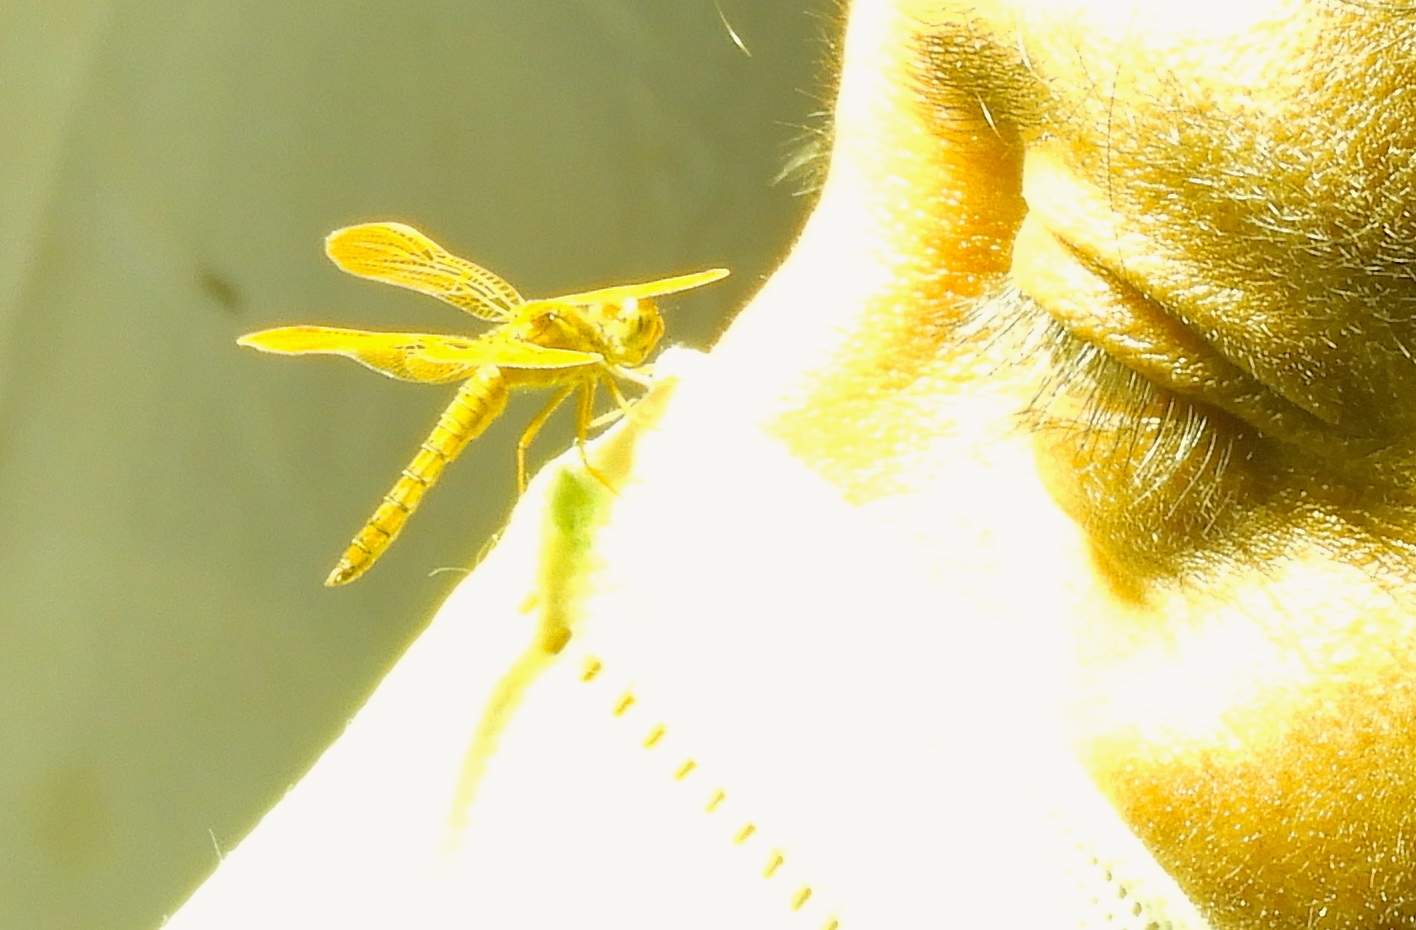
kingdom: Animalia
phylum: Arthropoda
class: Insecta
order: Odonata
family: Libellulidae
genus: Perithemis
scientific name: Perithemis intensa
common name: Mexican amberwing
